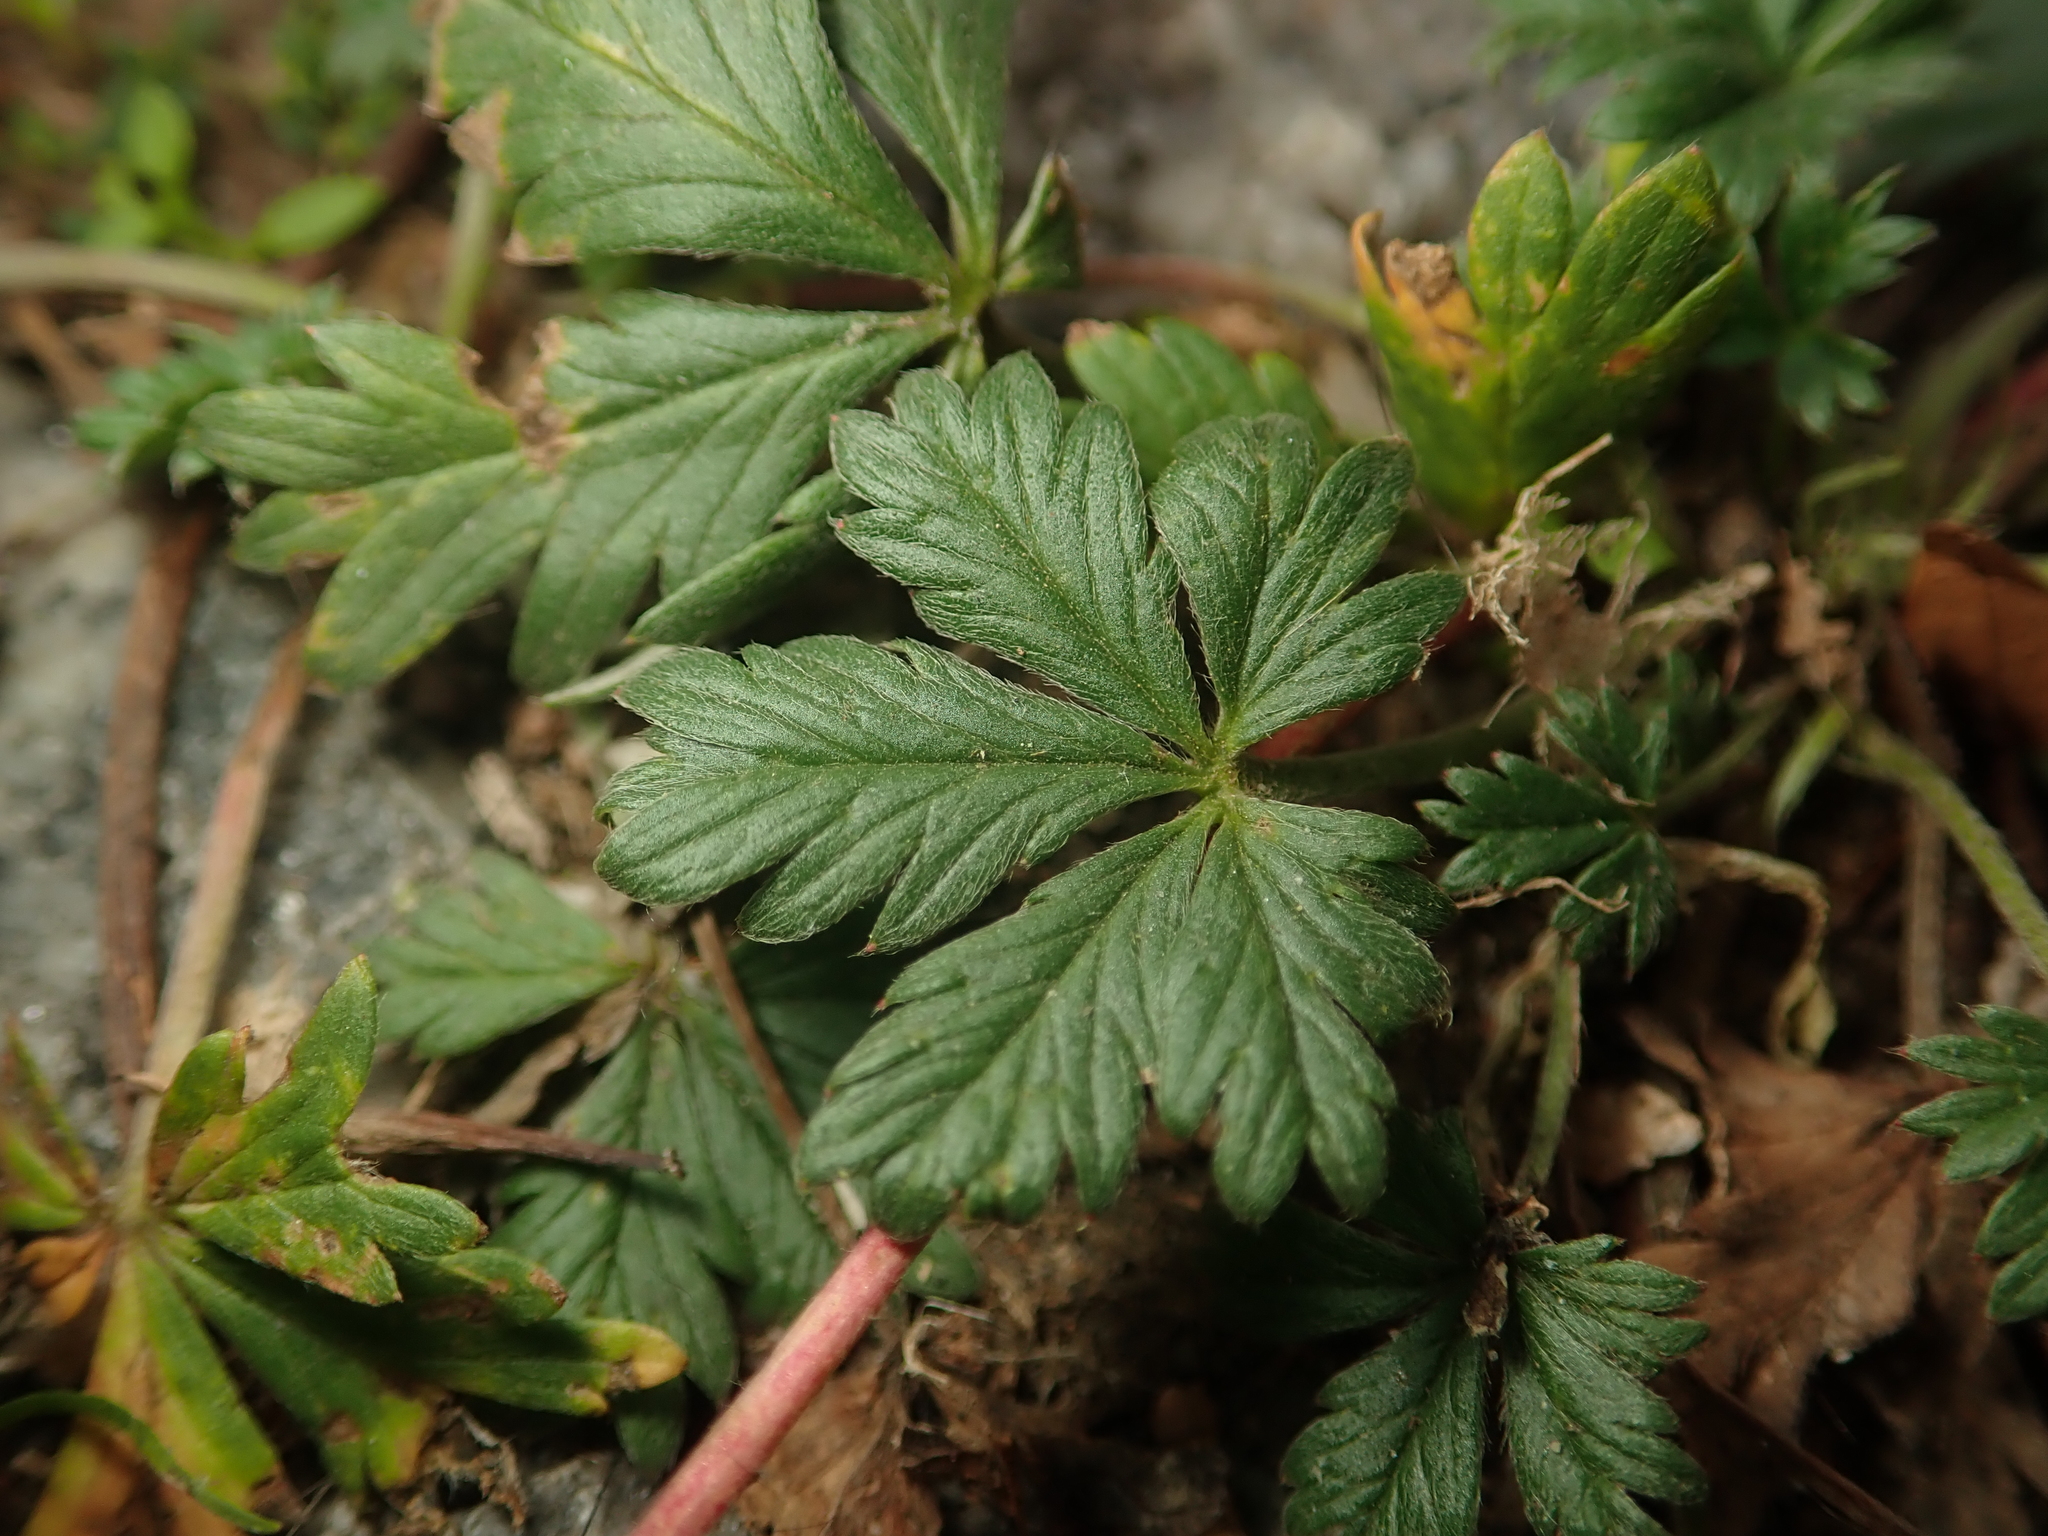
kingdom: Plantae
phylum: Tracheophyta
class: Magnoliopsida
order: Rosales
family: Rosaceae
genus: Potentilla
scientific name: Potentilla argentea
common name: Hoary cinquefoil
